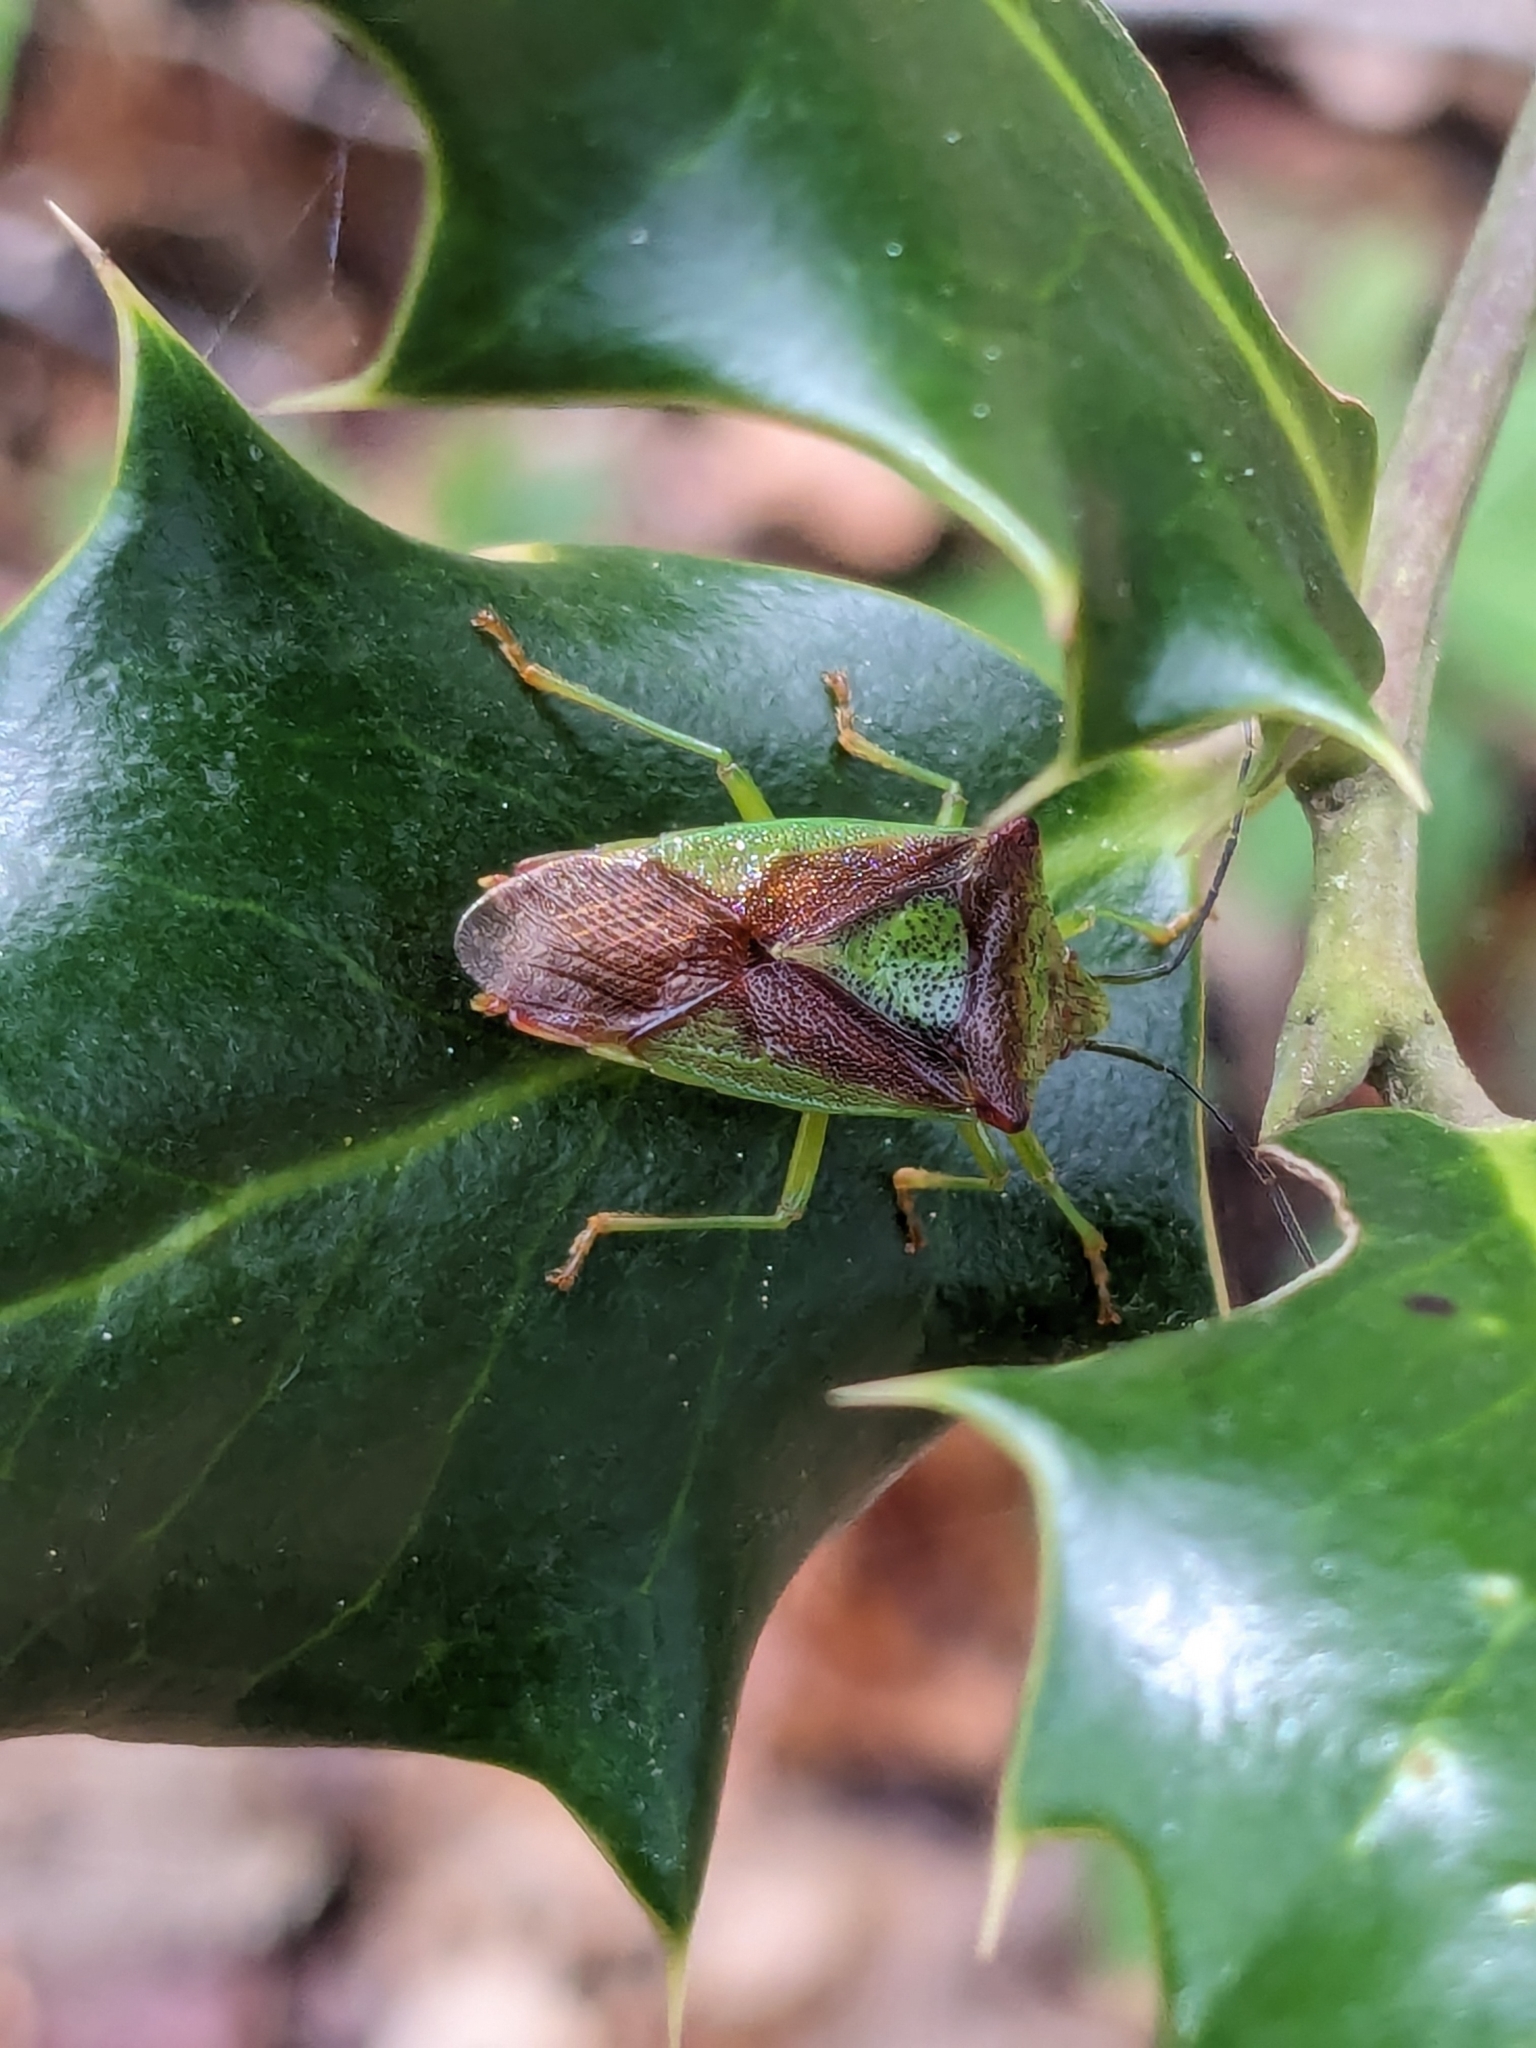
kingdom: Animalia
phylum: Arthropoda
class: Insecta
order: Hemiptera
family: Acanthosomatidae
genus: Acanthosoma
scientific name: Acanthosoma haemorrhoidale
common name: Hawthorn shieldbug
